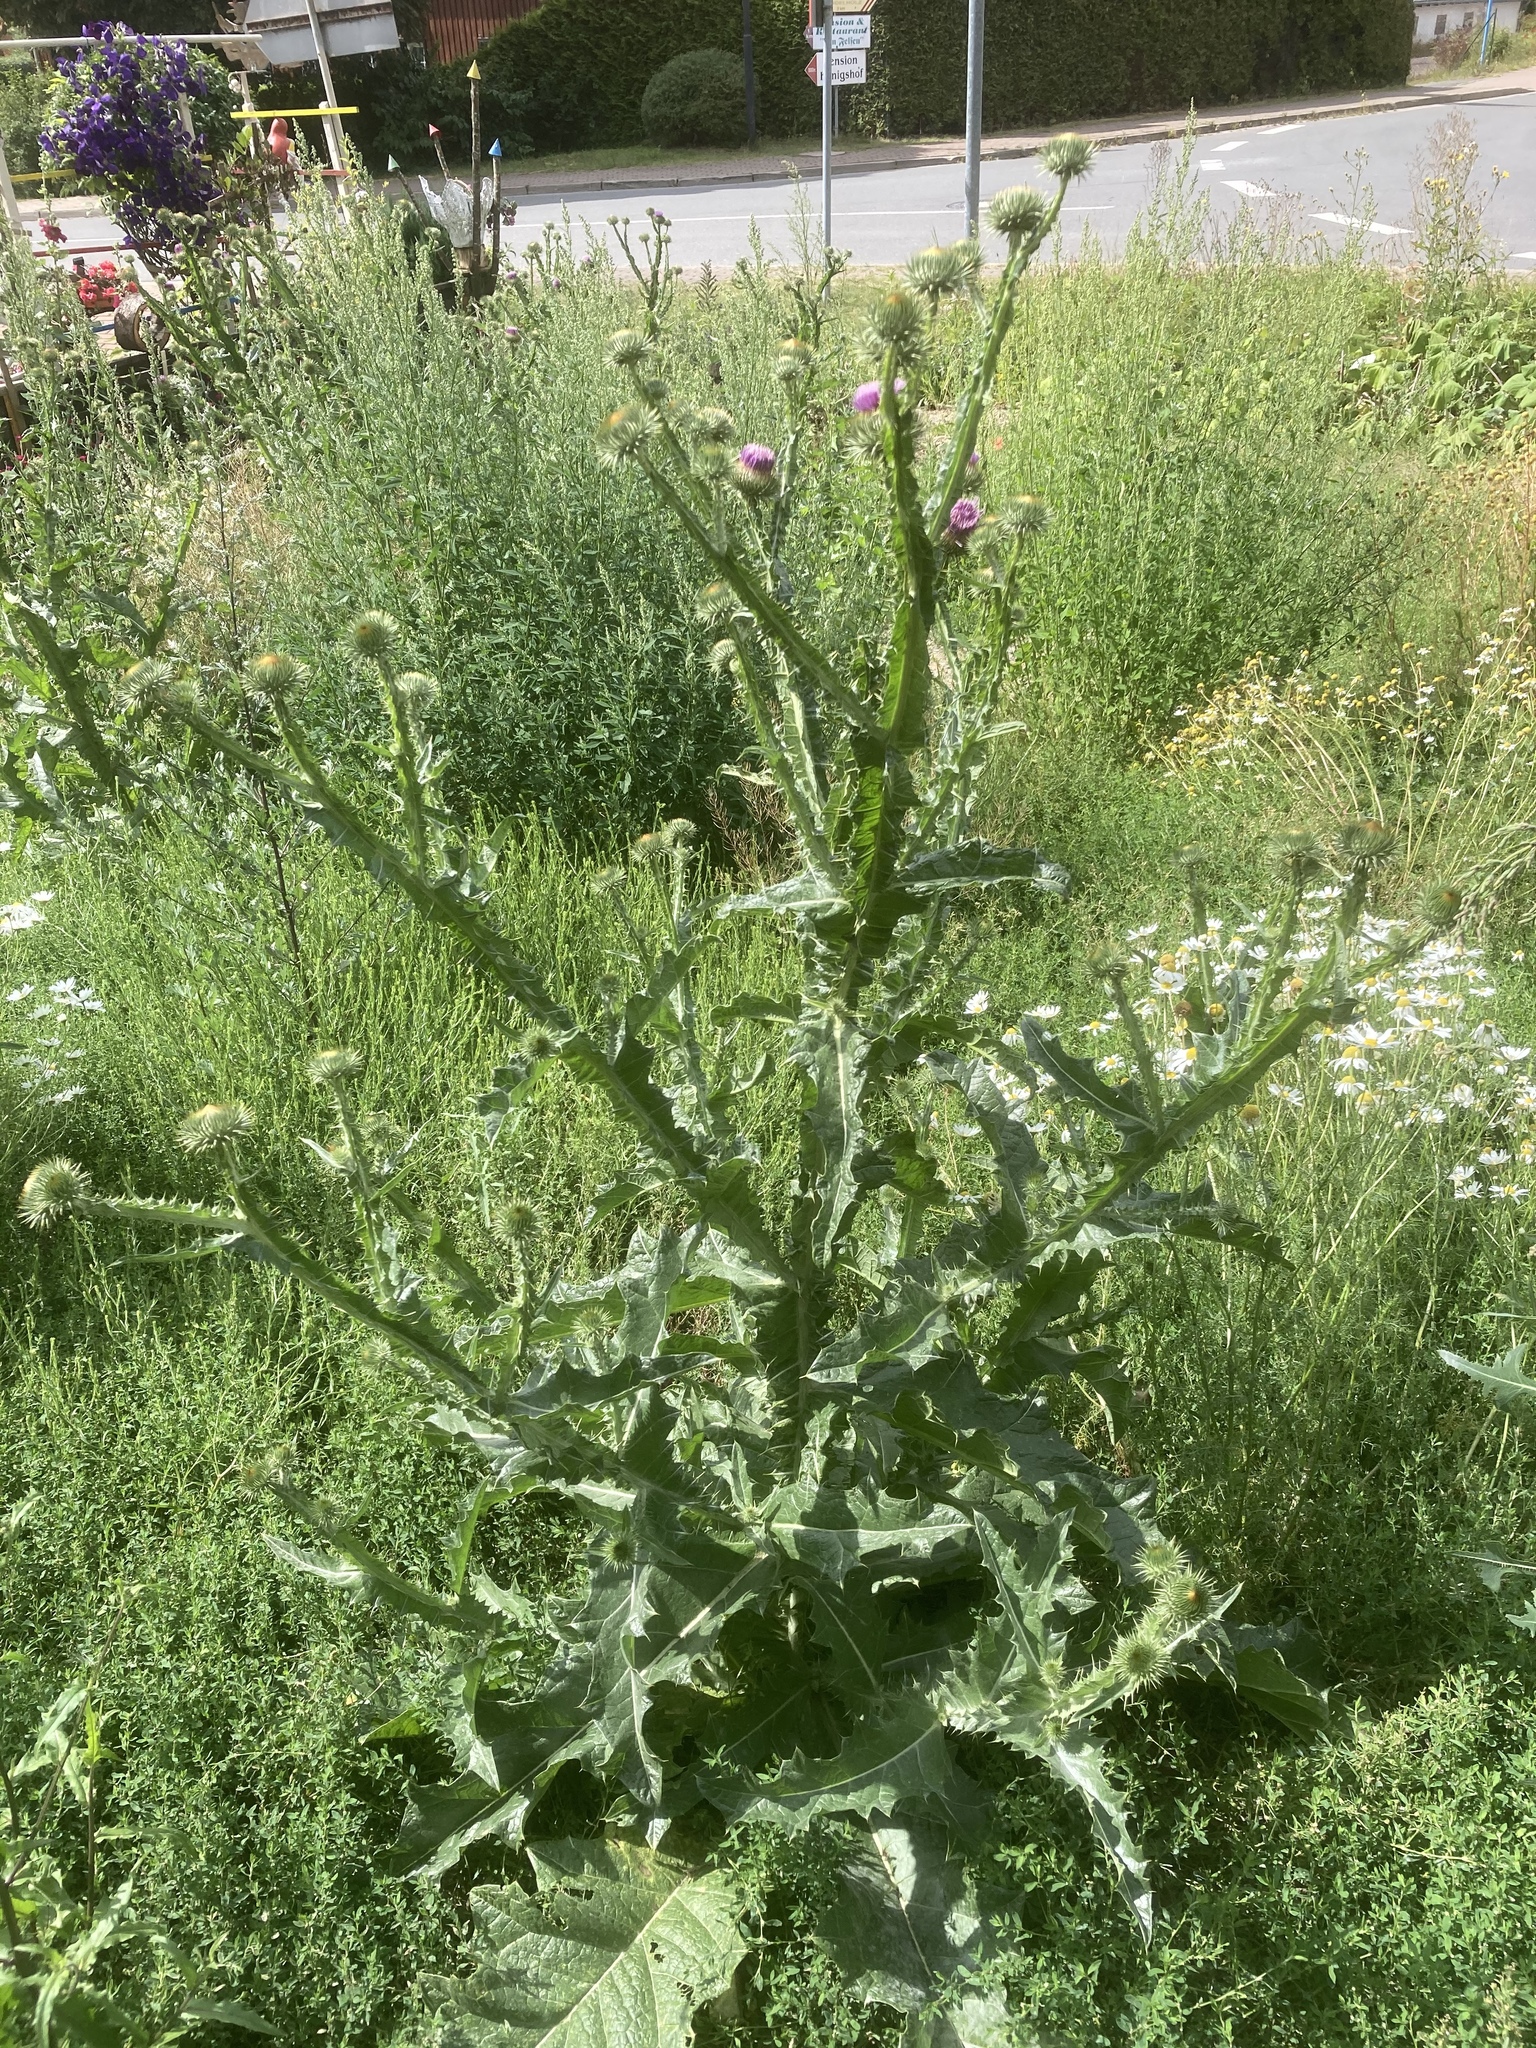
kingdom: Plantae
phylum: Tracheophyta
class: Magnoliopsida
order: Asterales
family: Asteraceae
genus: Onopordum
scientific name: Onopordum acanthium
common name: Scotch thistle
